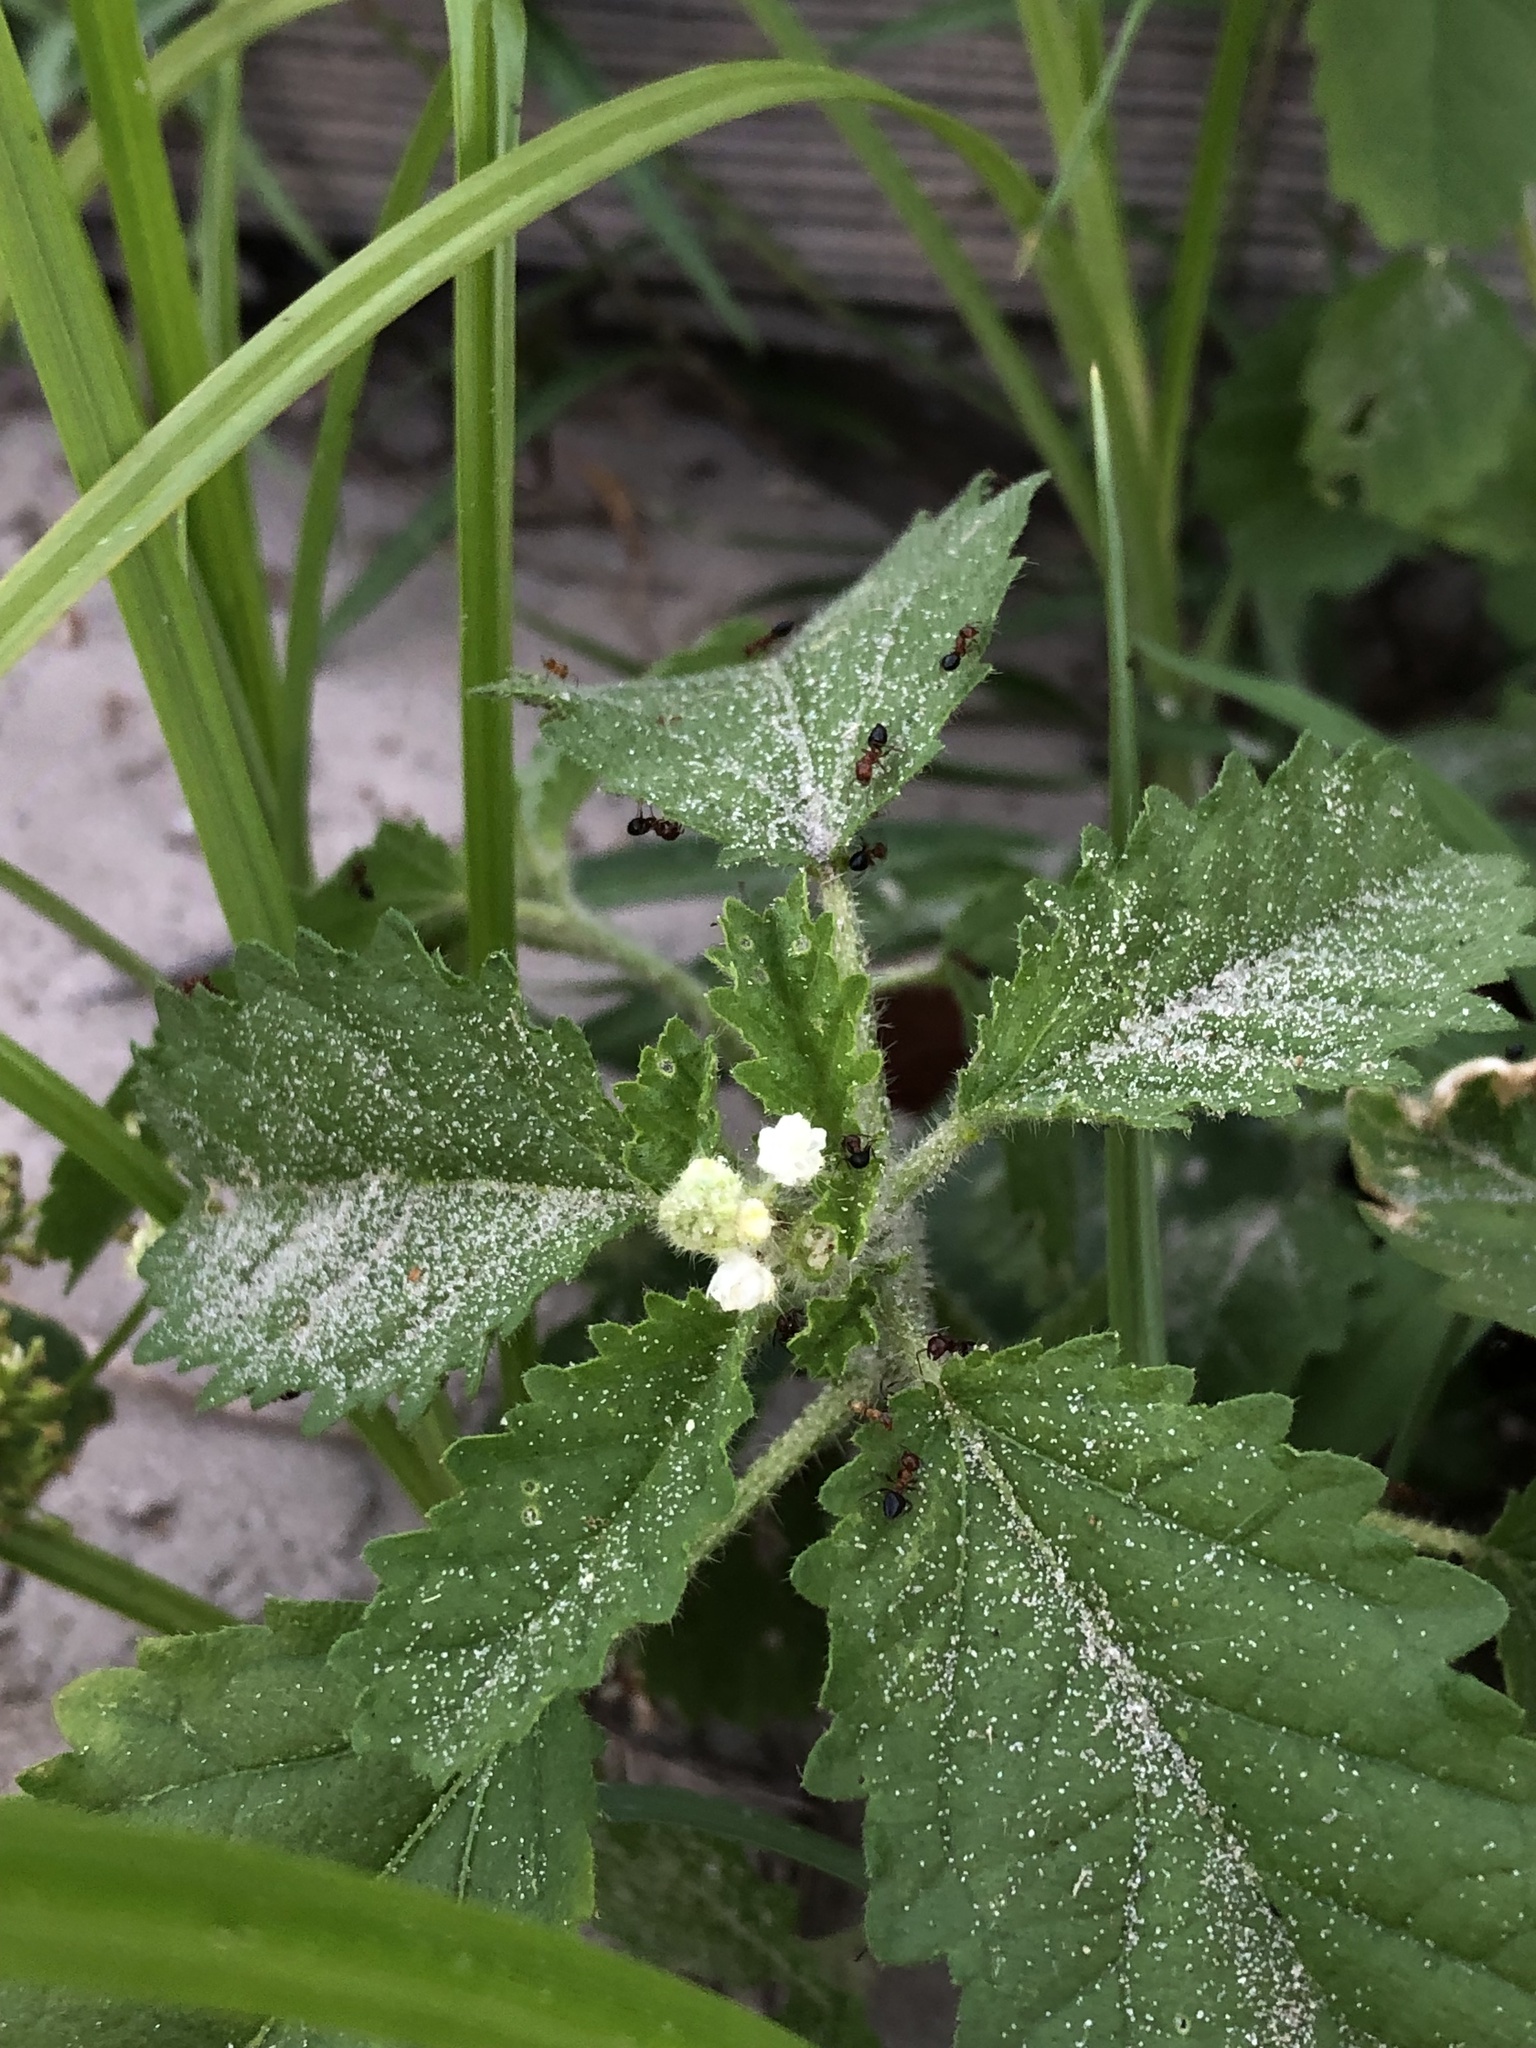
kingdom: Plantae
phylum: Tracheophyta
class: Magnoliopsida
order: Malpighiales
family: Euphorbiaceae
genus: Croton
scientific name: Croton glandulosus
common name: Tropic croton
